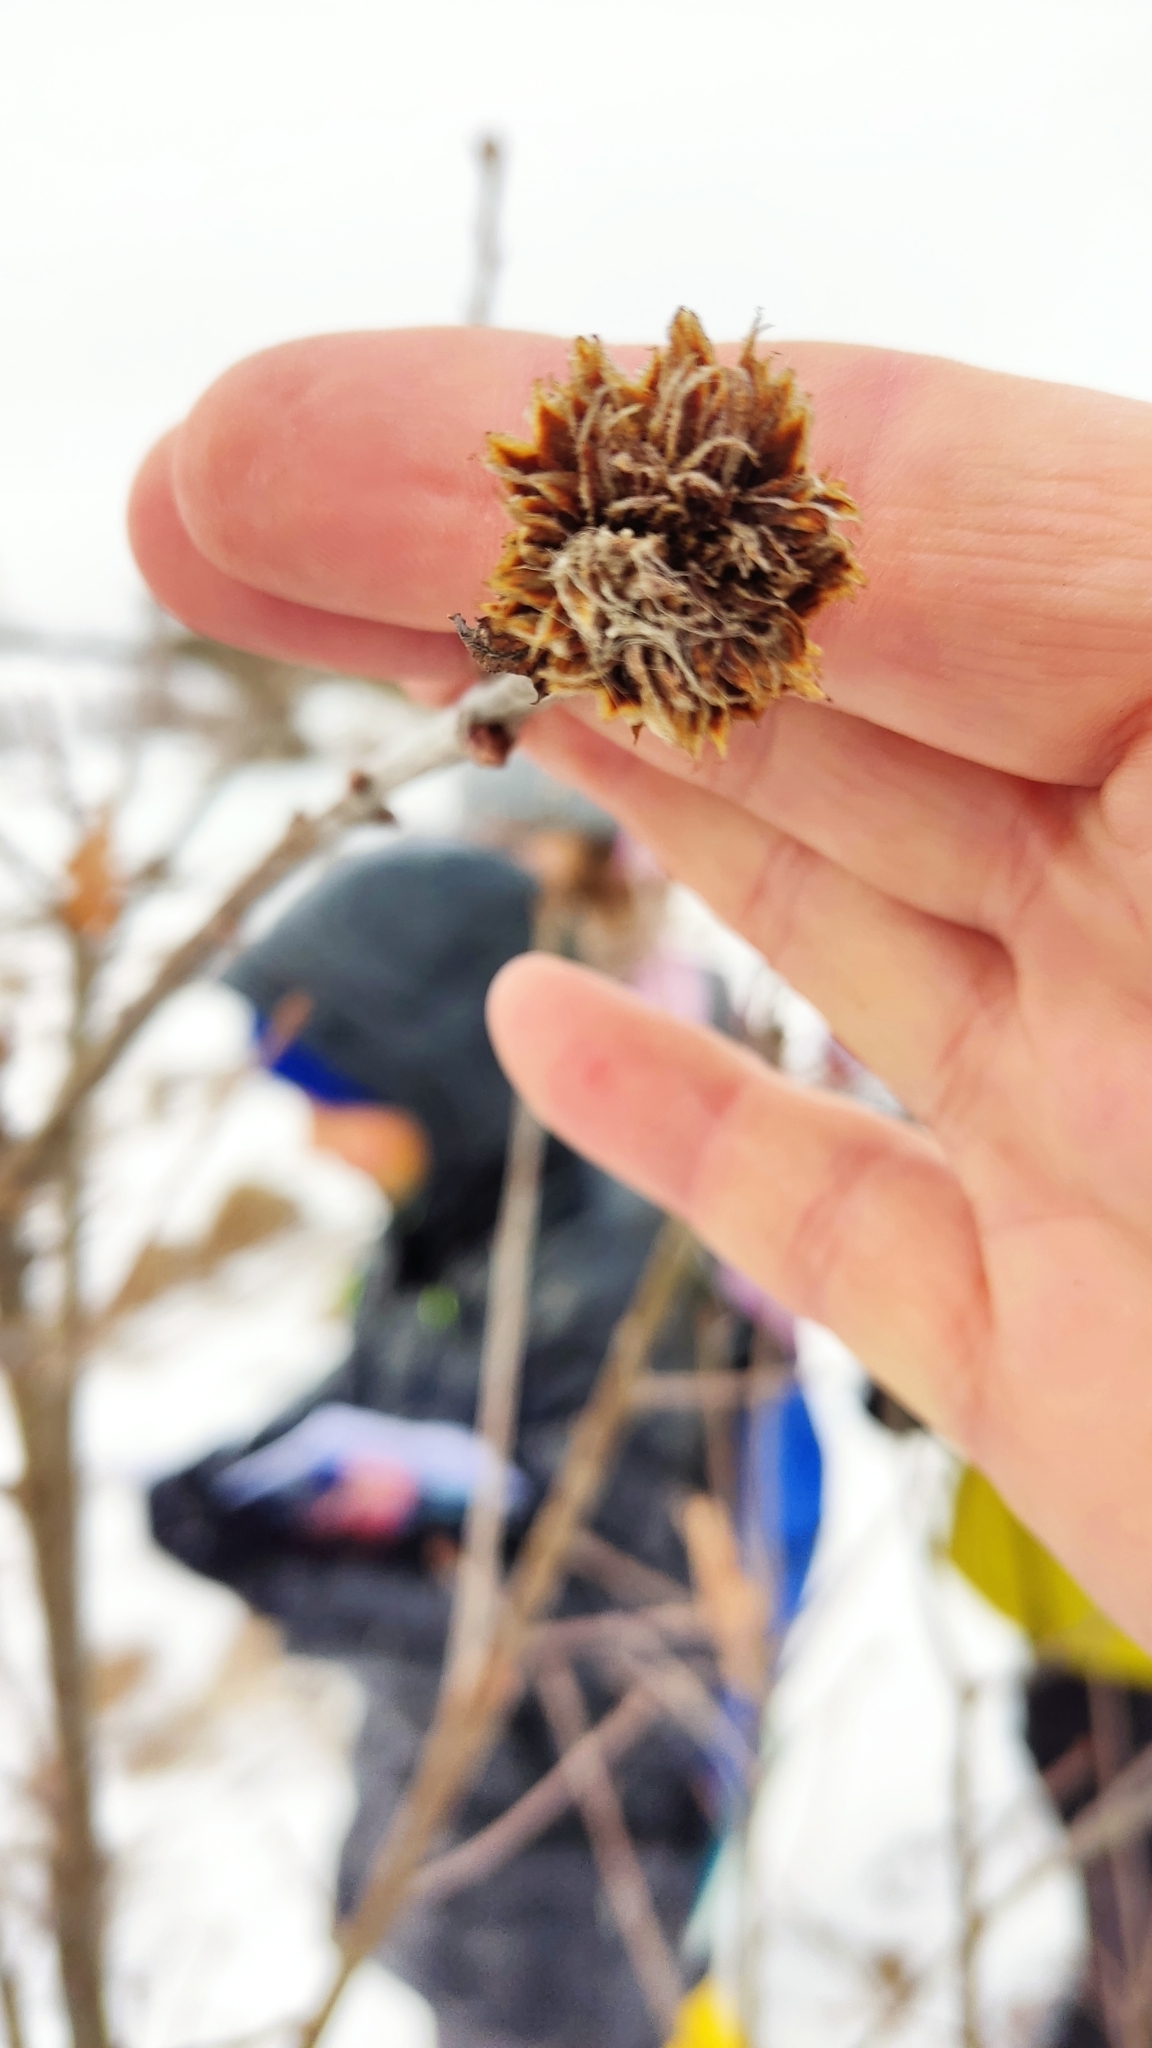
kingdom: Animalia
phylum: Arthropoda
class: Insecta
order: Hymenoptera
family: Cynipidae
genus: Andricus
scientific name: Andricus foecundatrix
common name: Artichoke gall
